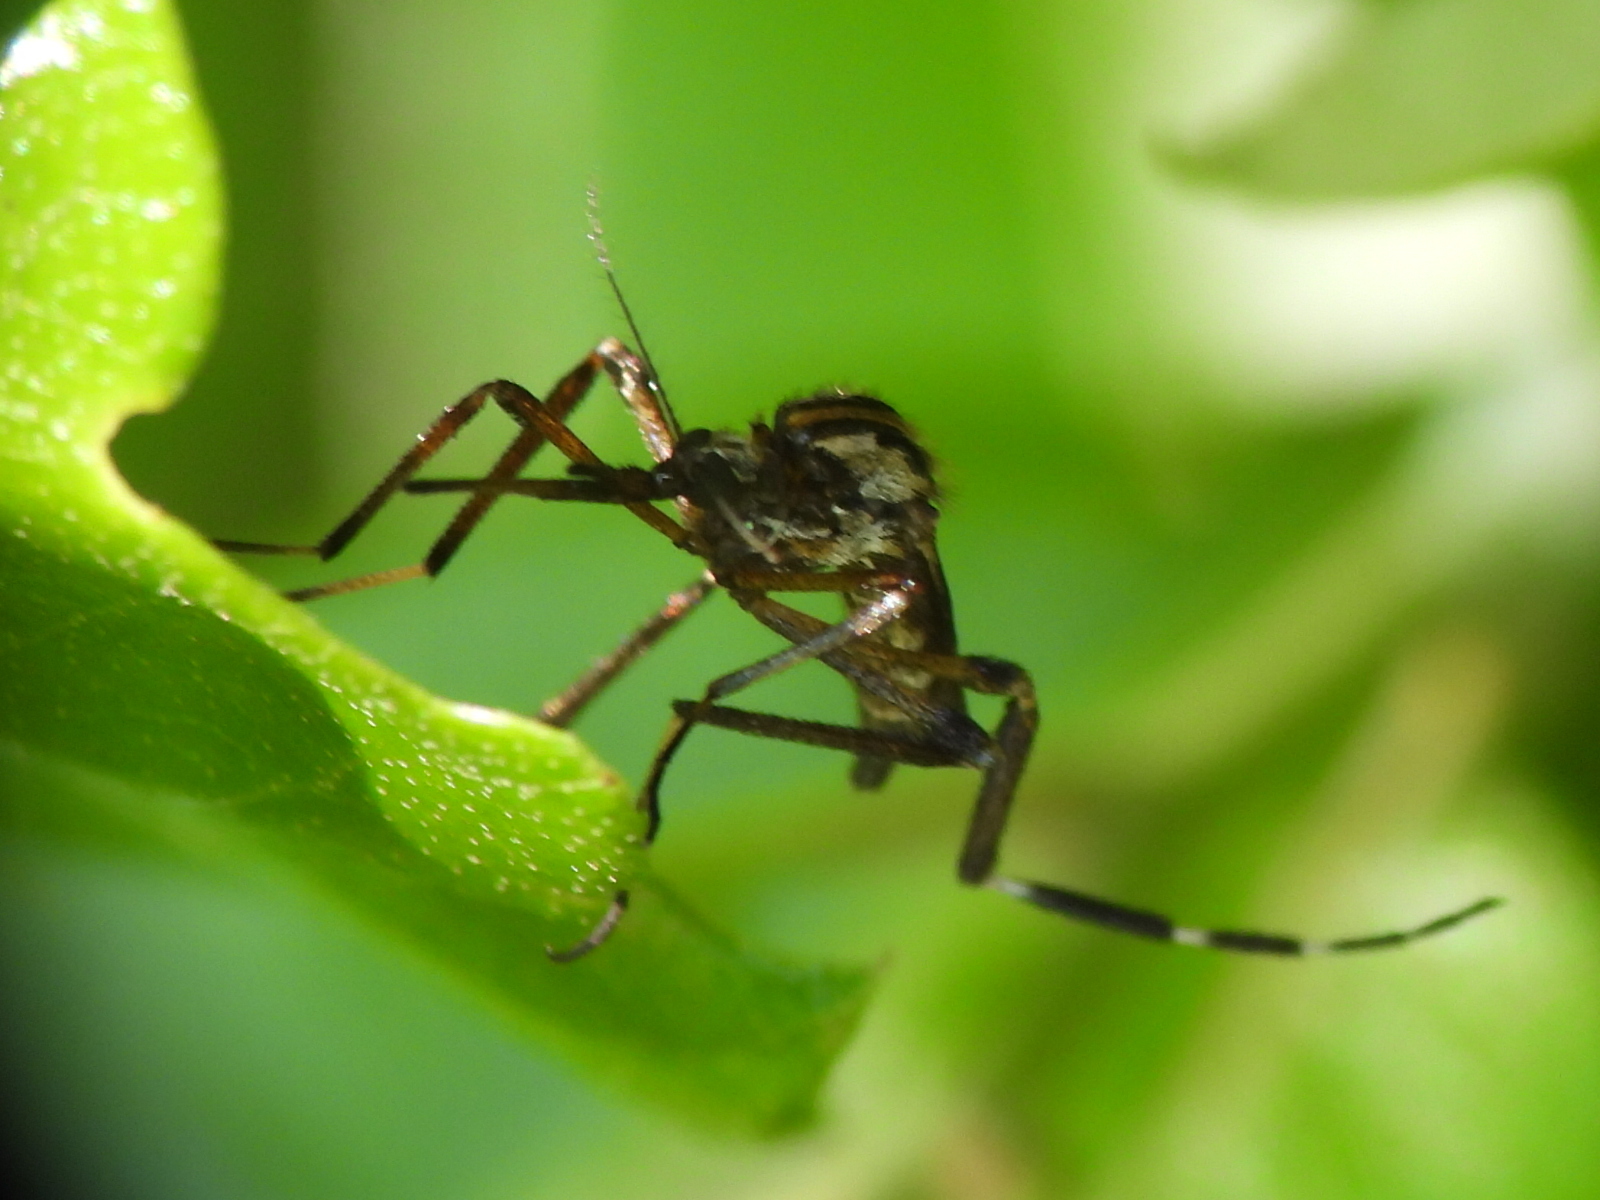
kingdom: Animalia
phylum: Arthropoda
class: Insecta
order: Diptera
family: Culicidae
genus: Psorophora
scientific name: Psorophora ciliata
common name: Gallinipper
